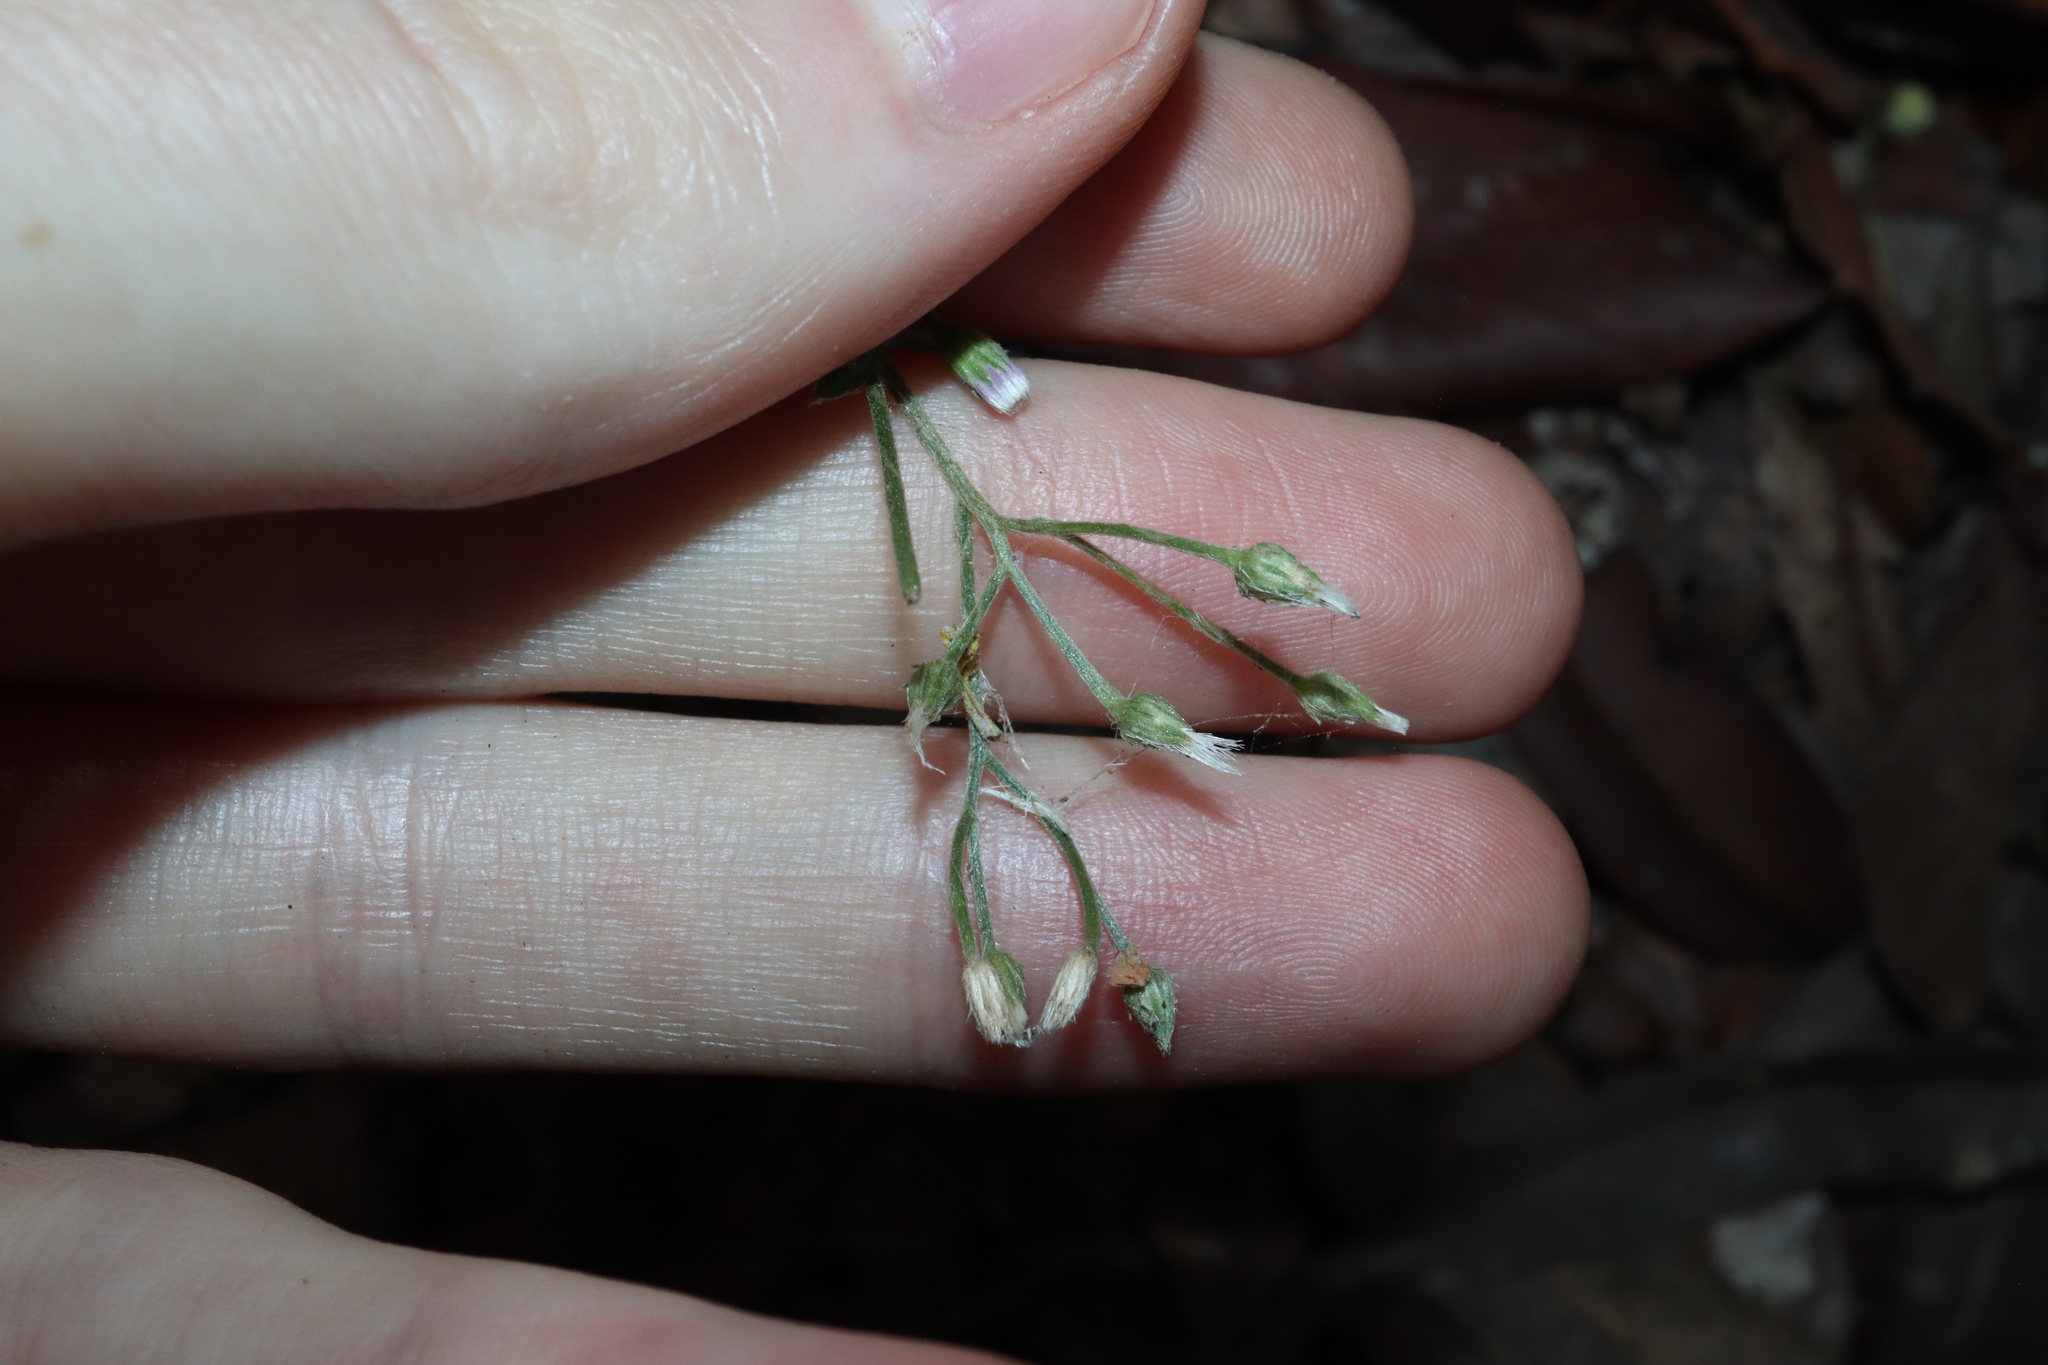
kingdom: Plantae
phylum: Tracheophyta
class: Magnoliopsida
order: Asterales
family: Asteraceae
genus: Cyanthillium
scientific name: Cyanthillium cinereum
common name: Little ironweed
